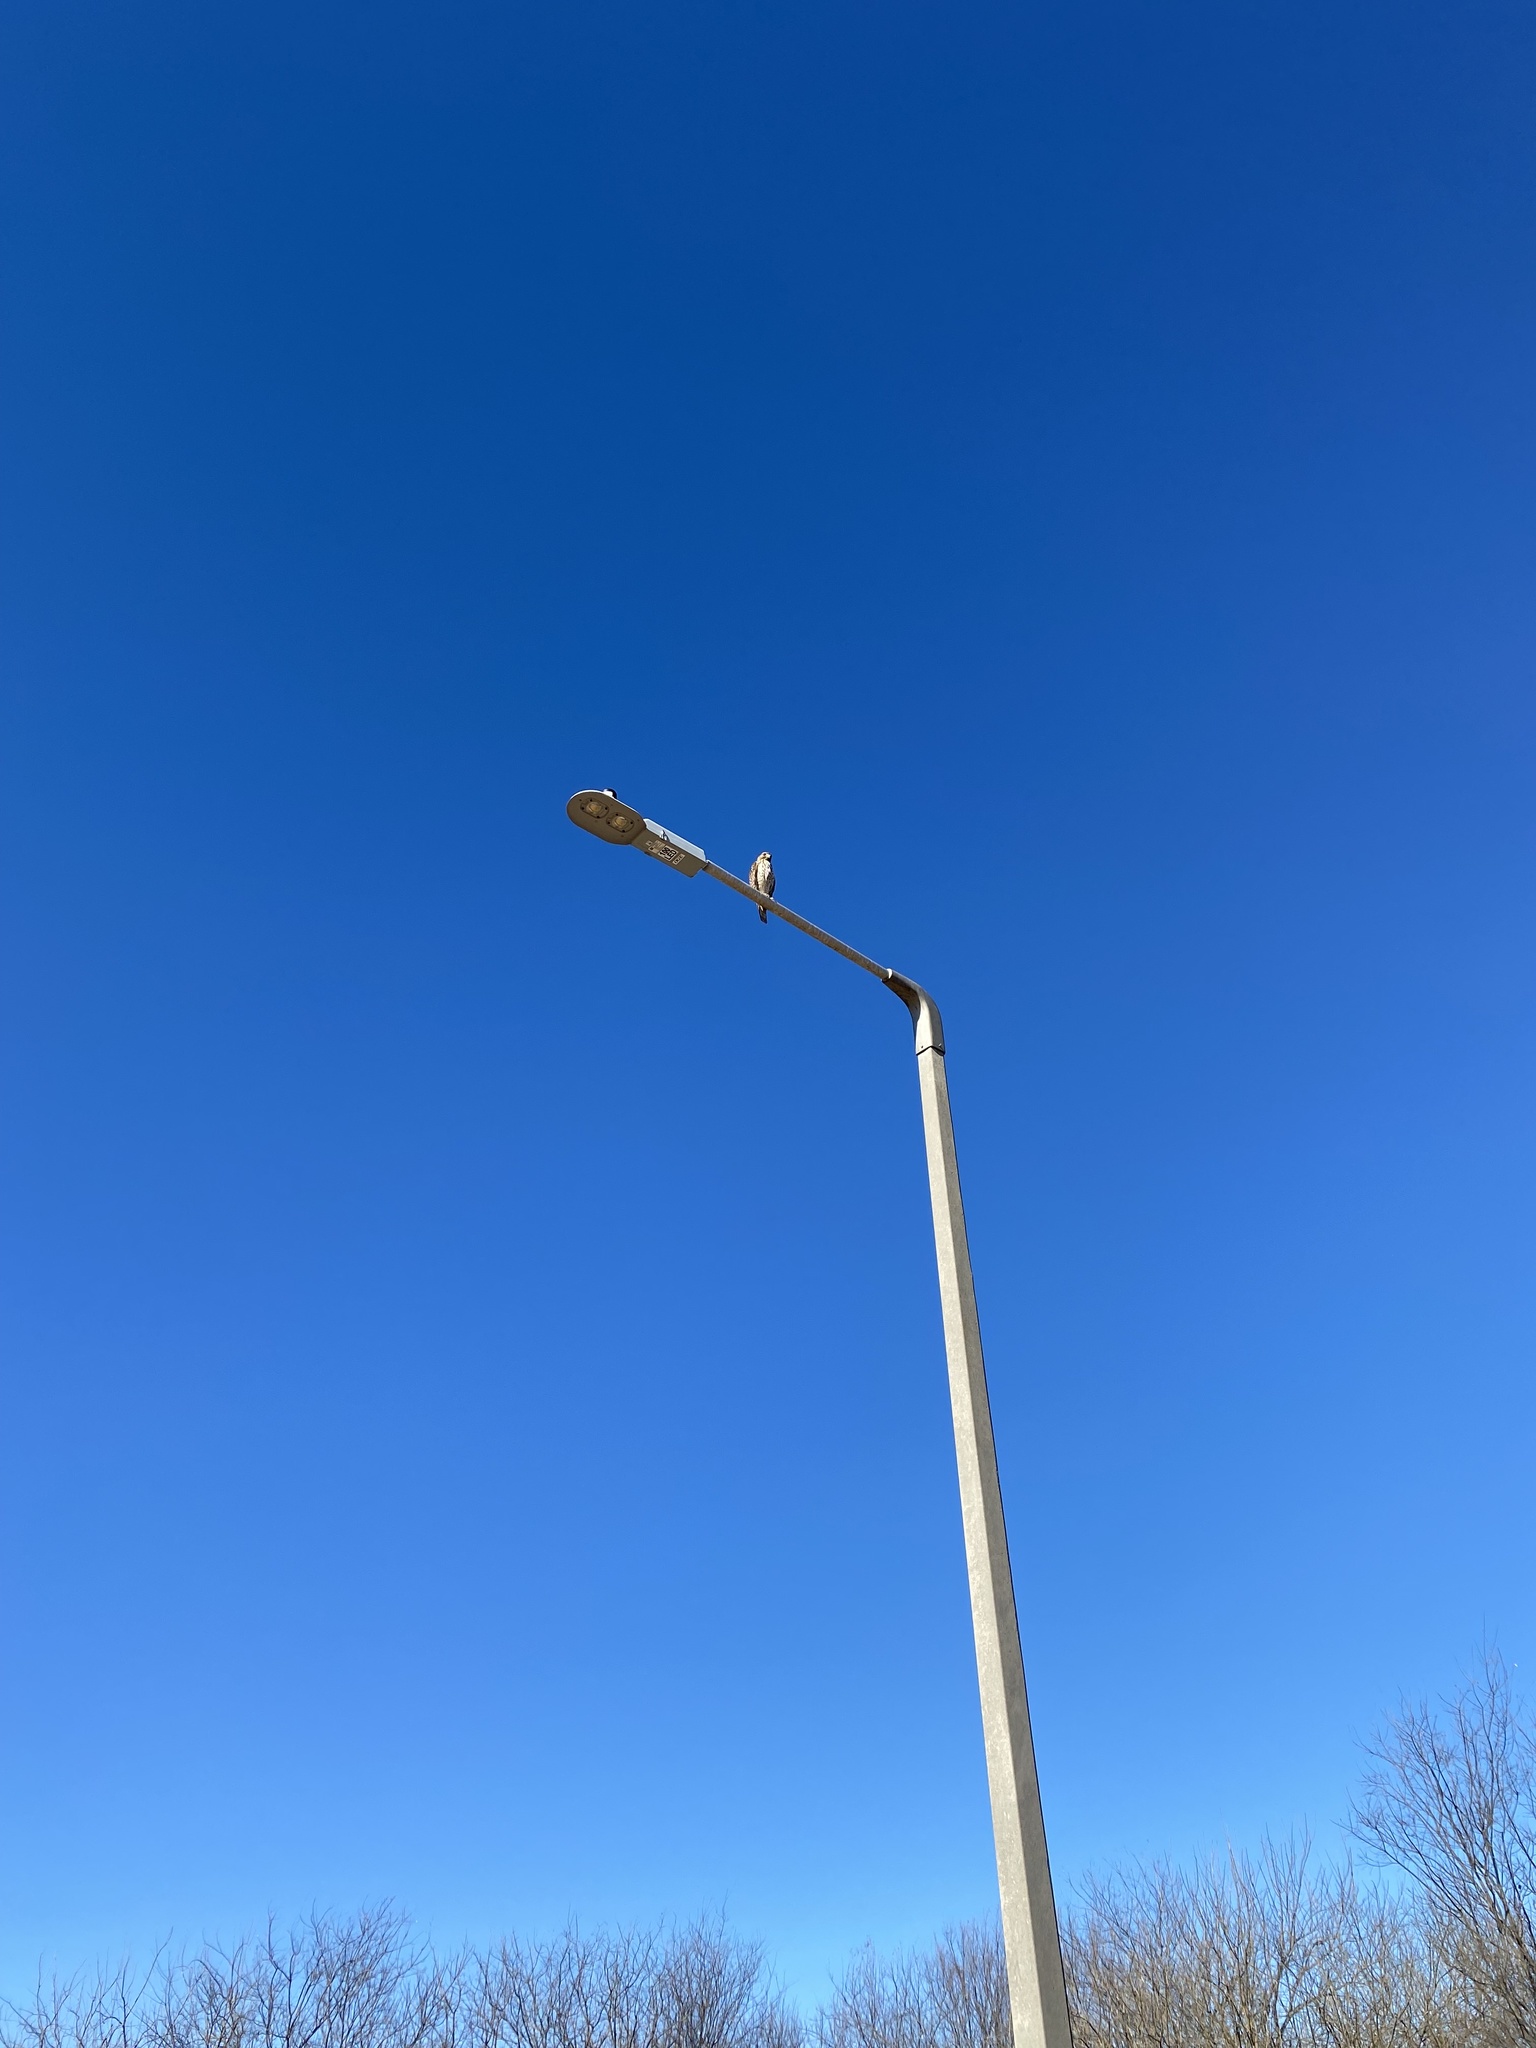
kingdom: Animalia
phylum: Chordata
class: Aves
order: Accipitriformes
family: Accipitridae
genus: Buteo
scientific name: Buteo lineatus
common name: Red-shouldered hawk
